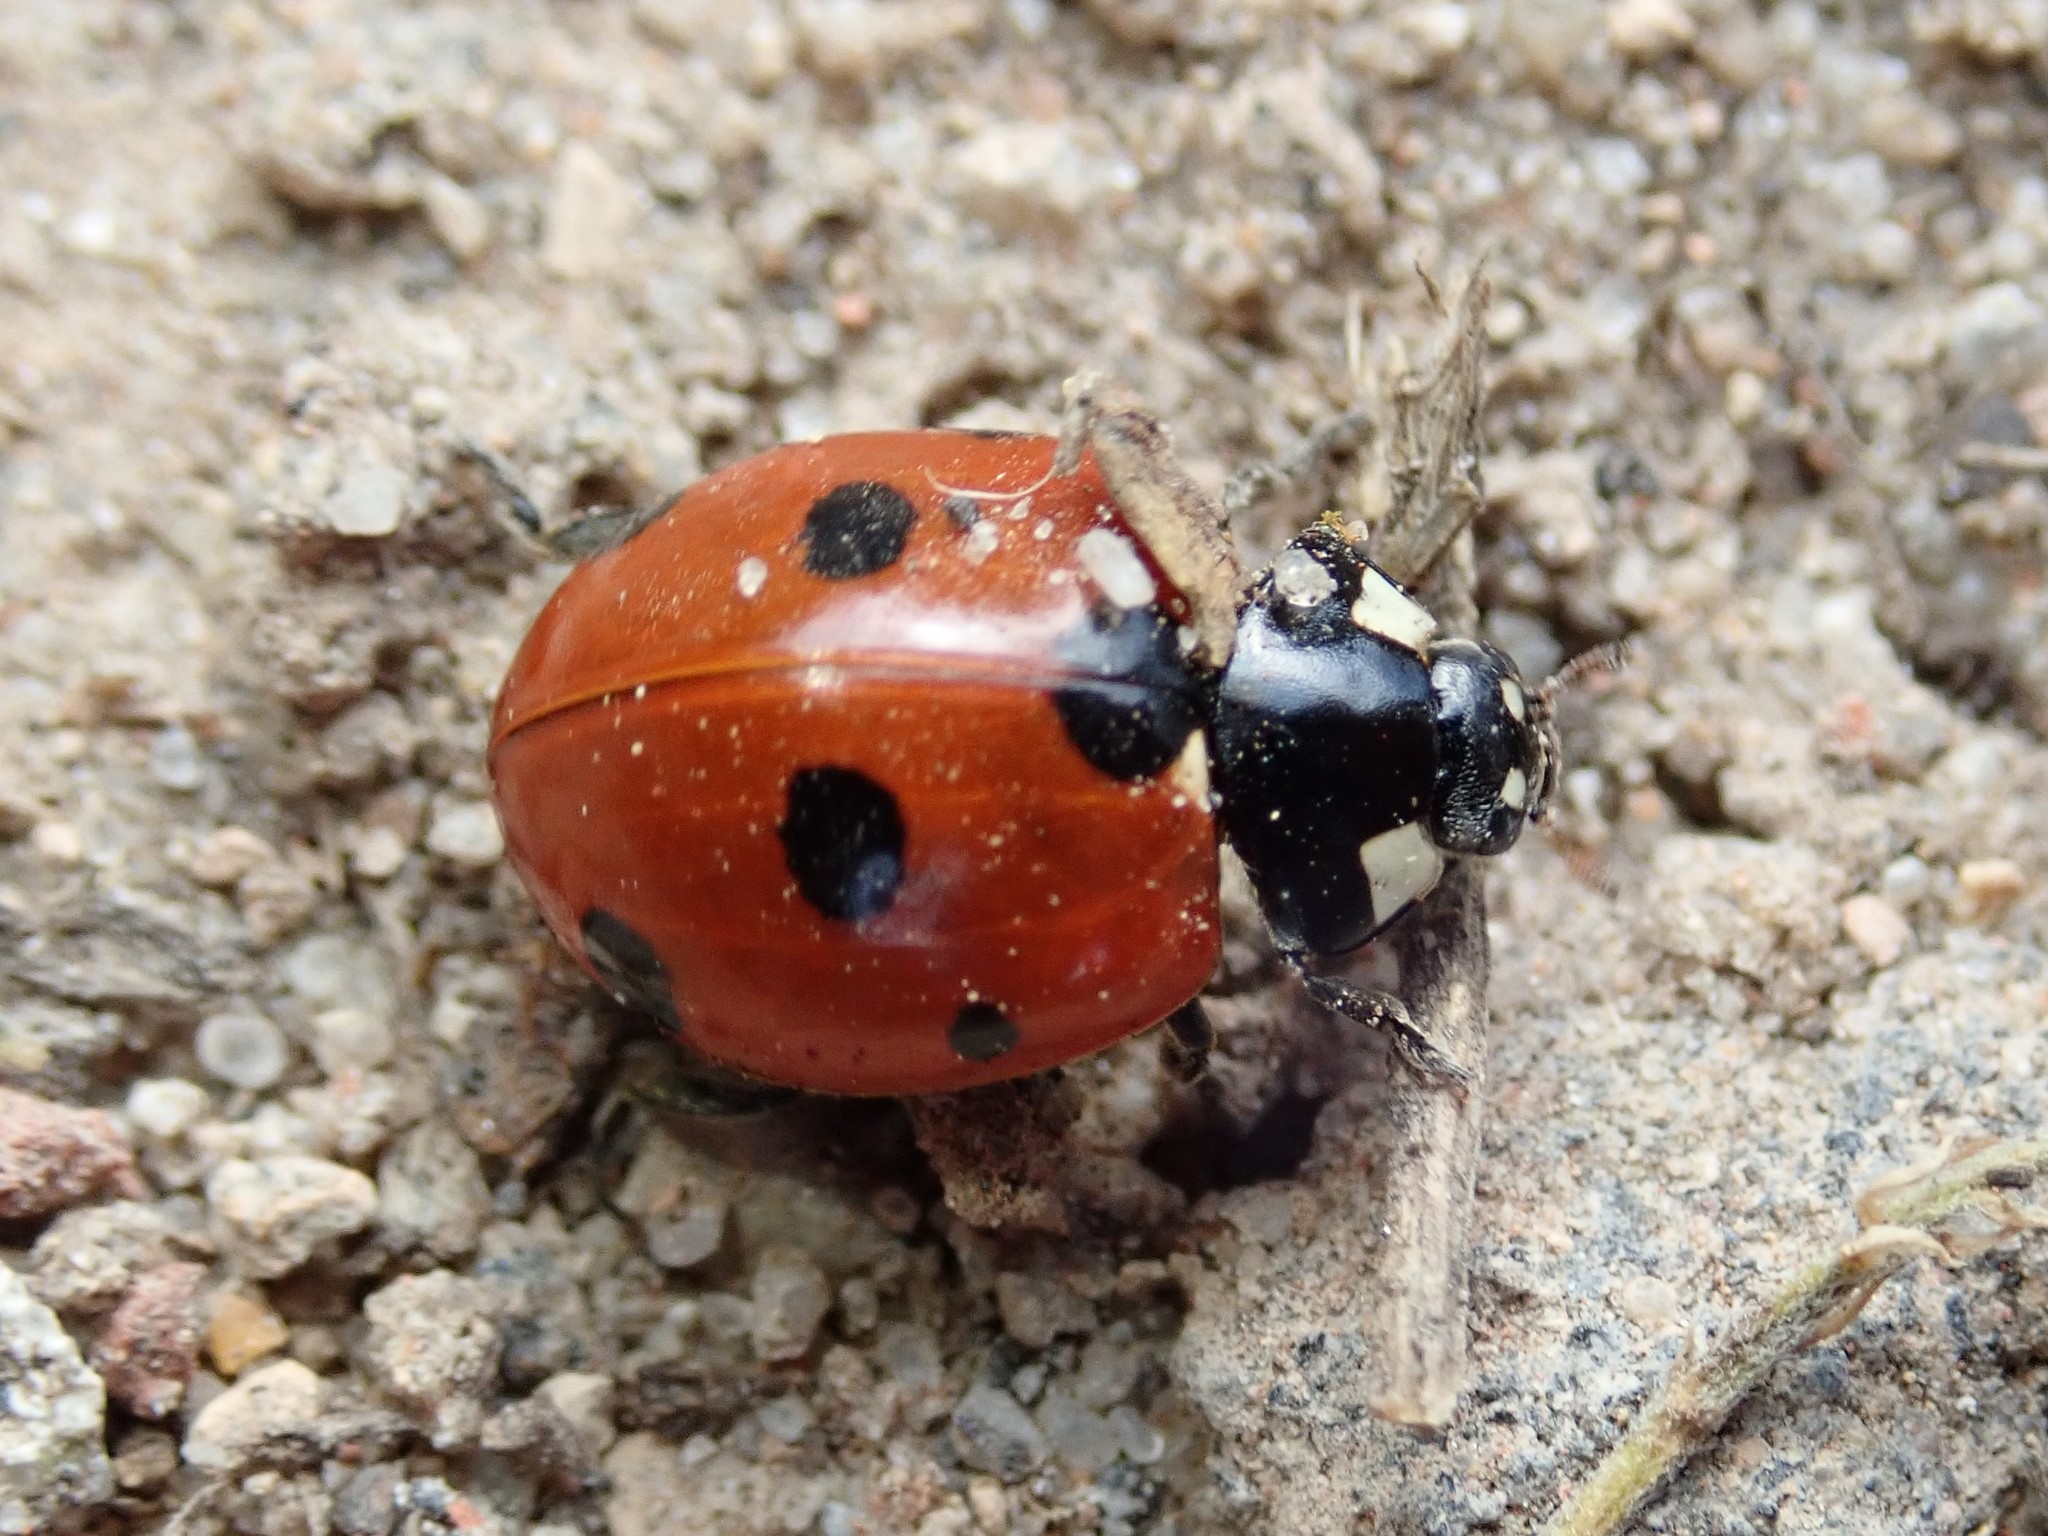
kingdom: Animalia
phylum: Arthropoda
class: Insecta
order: Coleoptera
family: Coccinellidae
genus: Coccinella
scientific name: Coccinella septempunctata
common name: Sevenspotted lady beetle
